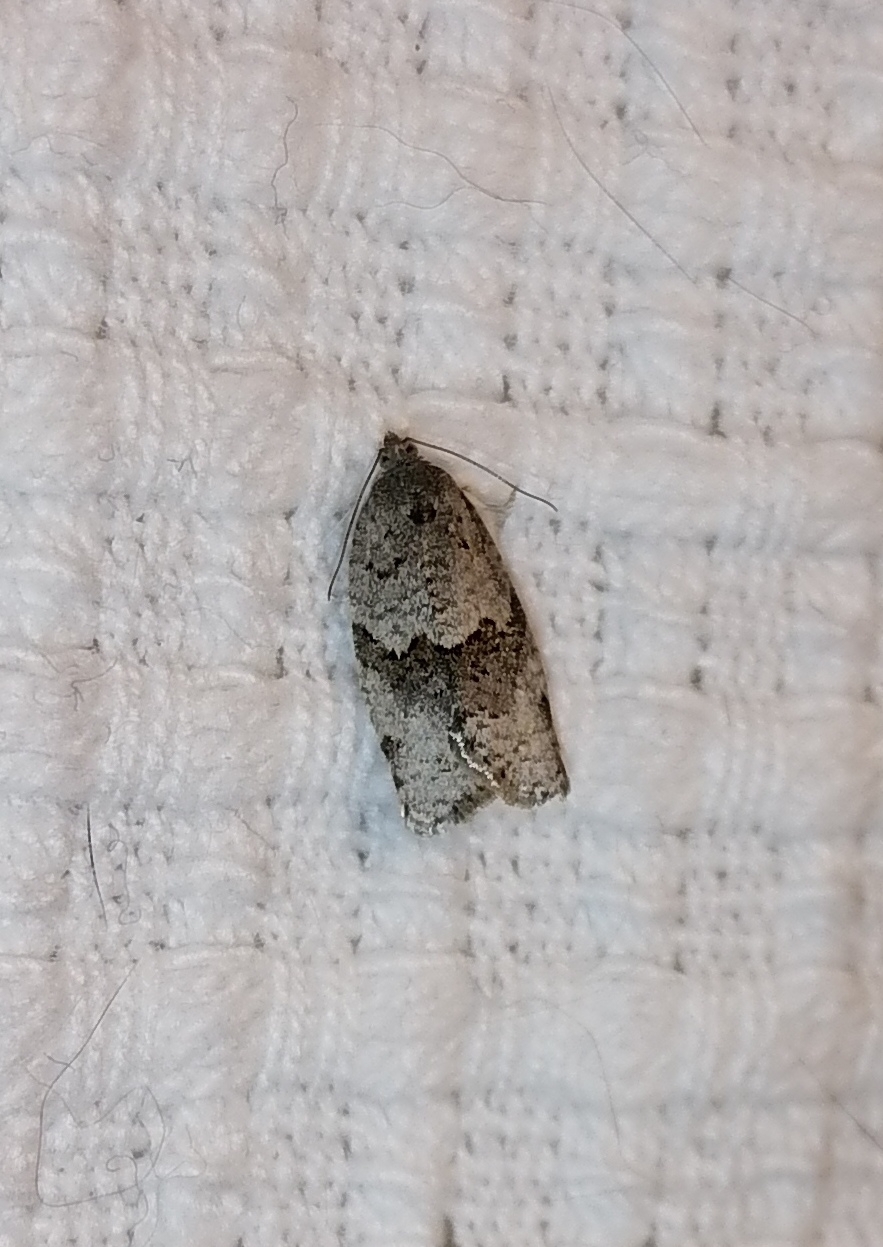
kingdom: Animalia
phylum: Arthropoda
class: Insecta
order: Lepidoptera
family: Tortricidae
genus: Syndemis
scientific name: Syndemis musculana
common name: Dark-barred twist
